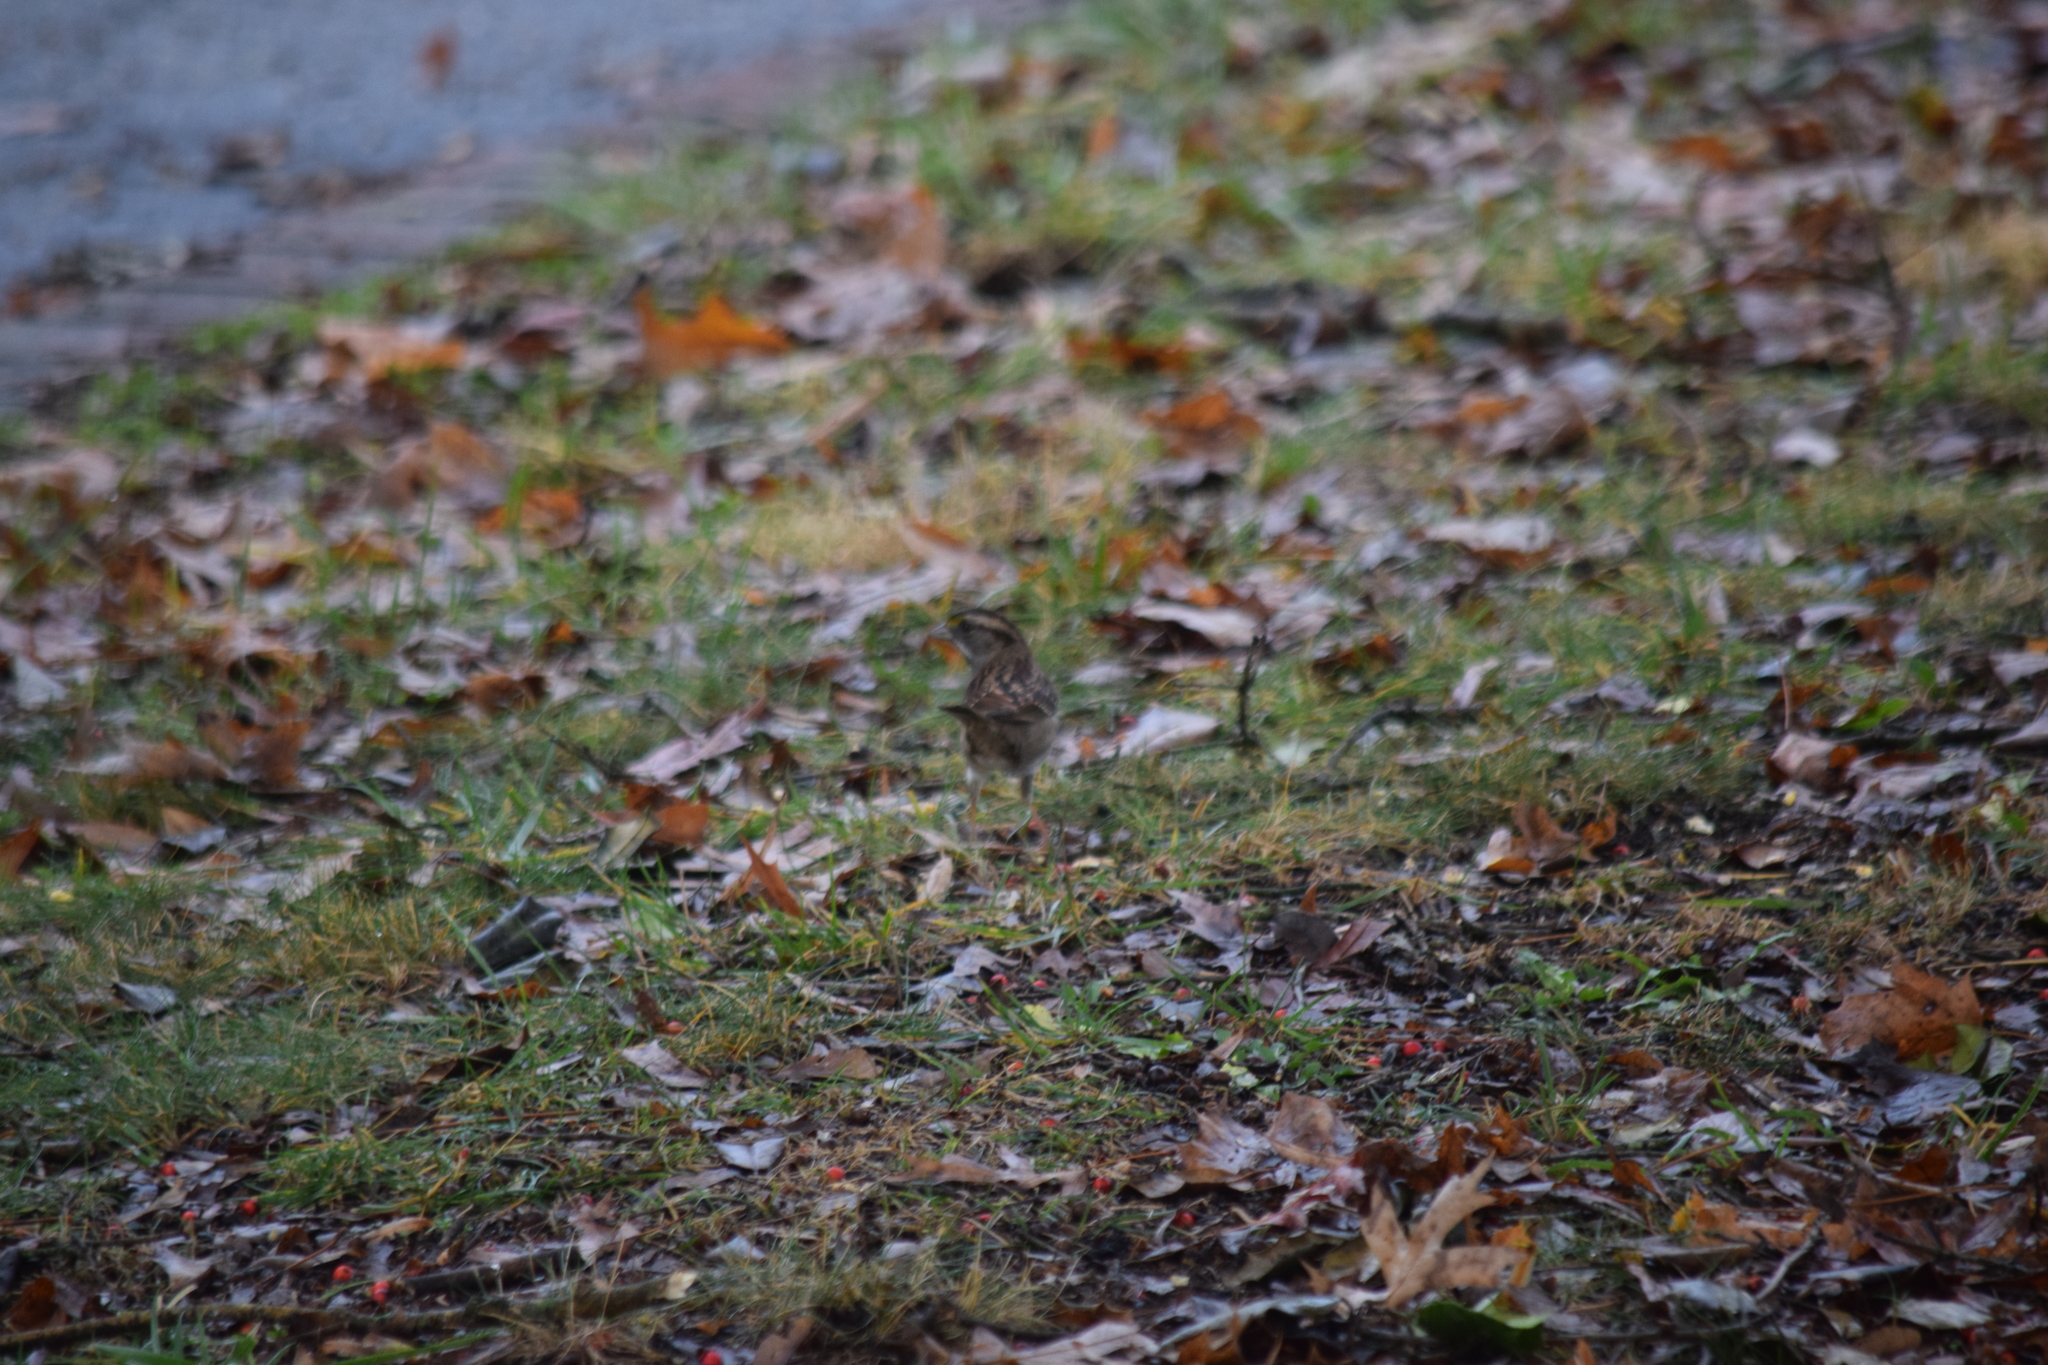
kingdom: Animalia
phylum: Chordata
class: Aves
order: Passeriformes
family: Passerellidae
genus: Zonotrichia
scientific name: Zonotrichia albicollis
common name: White-throated sparrow
